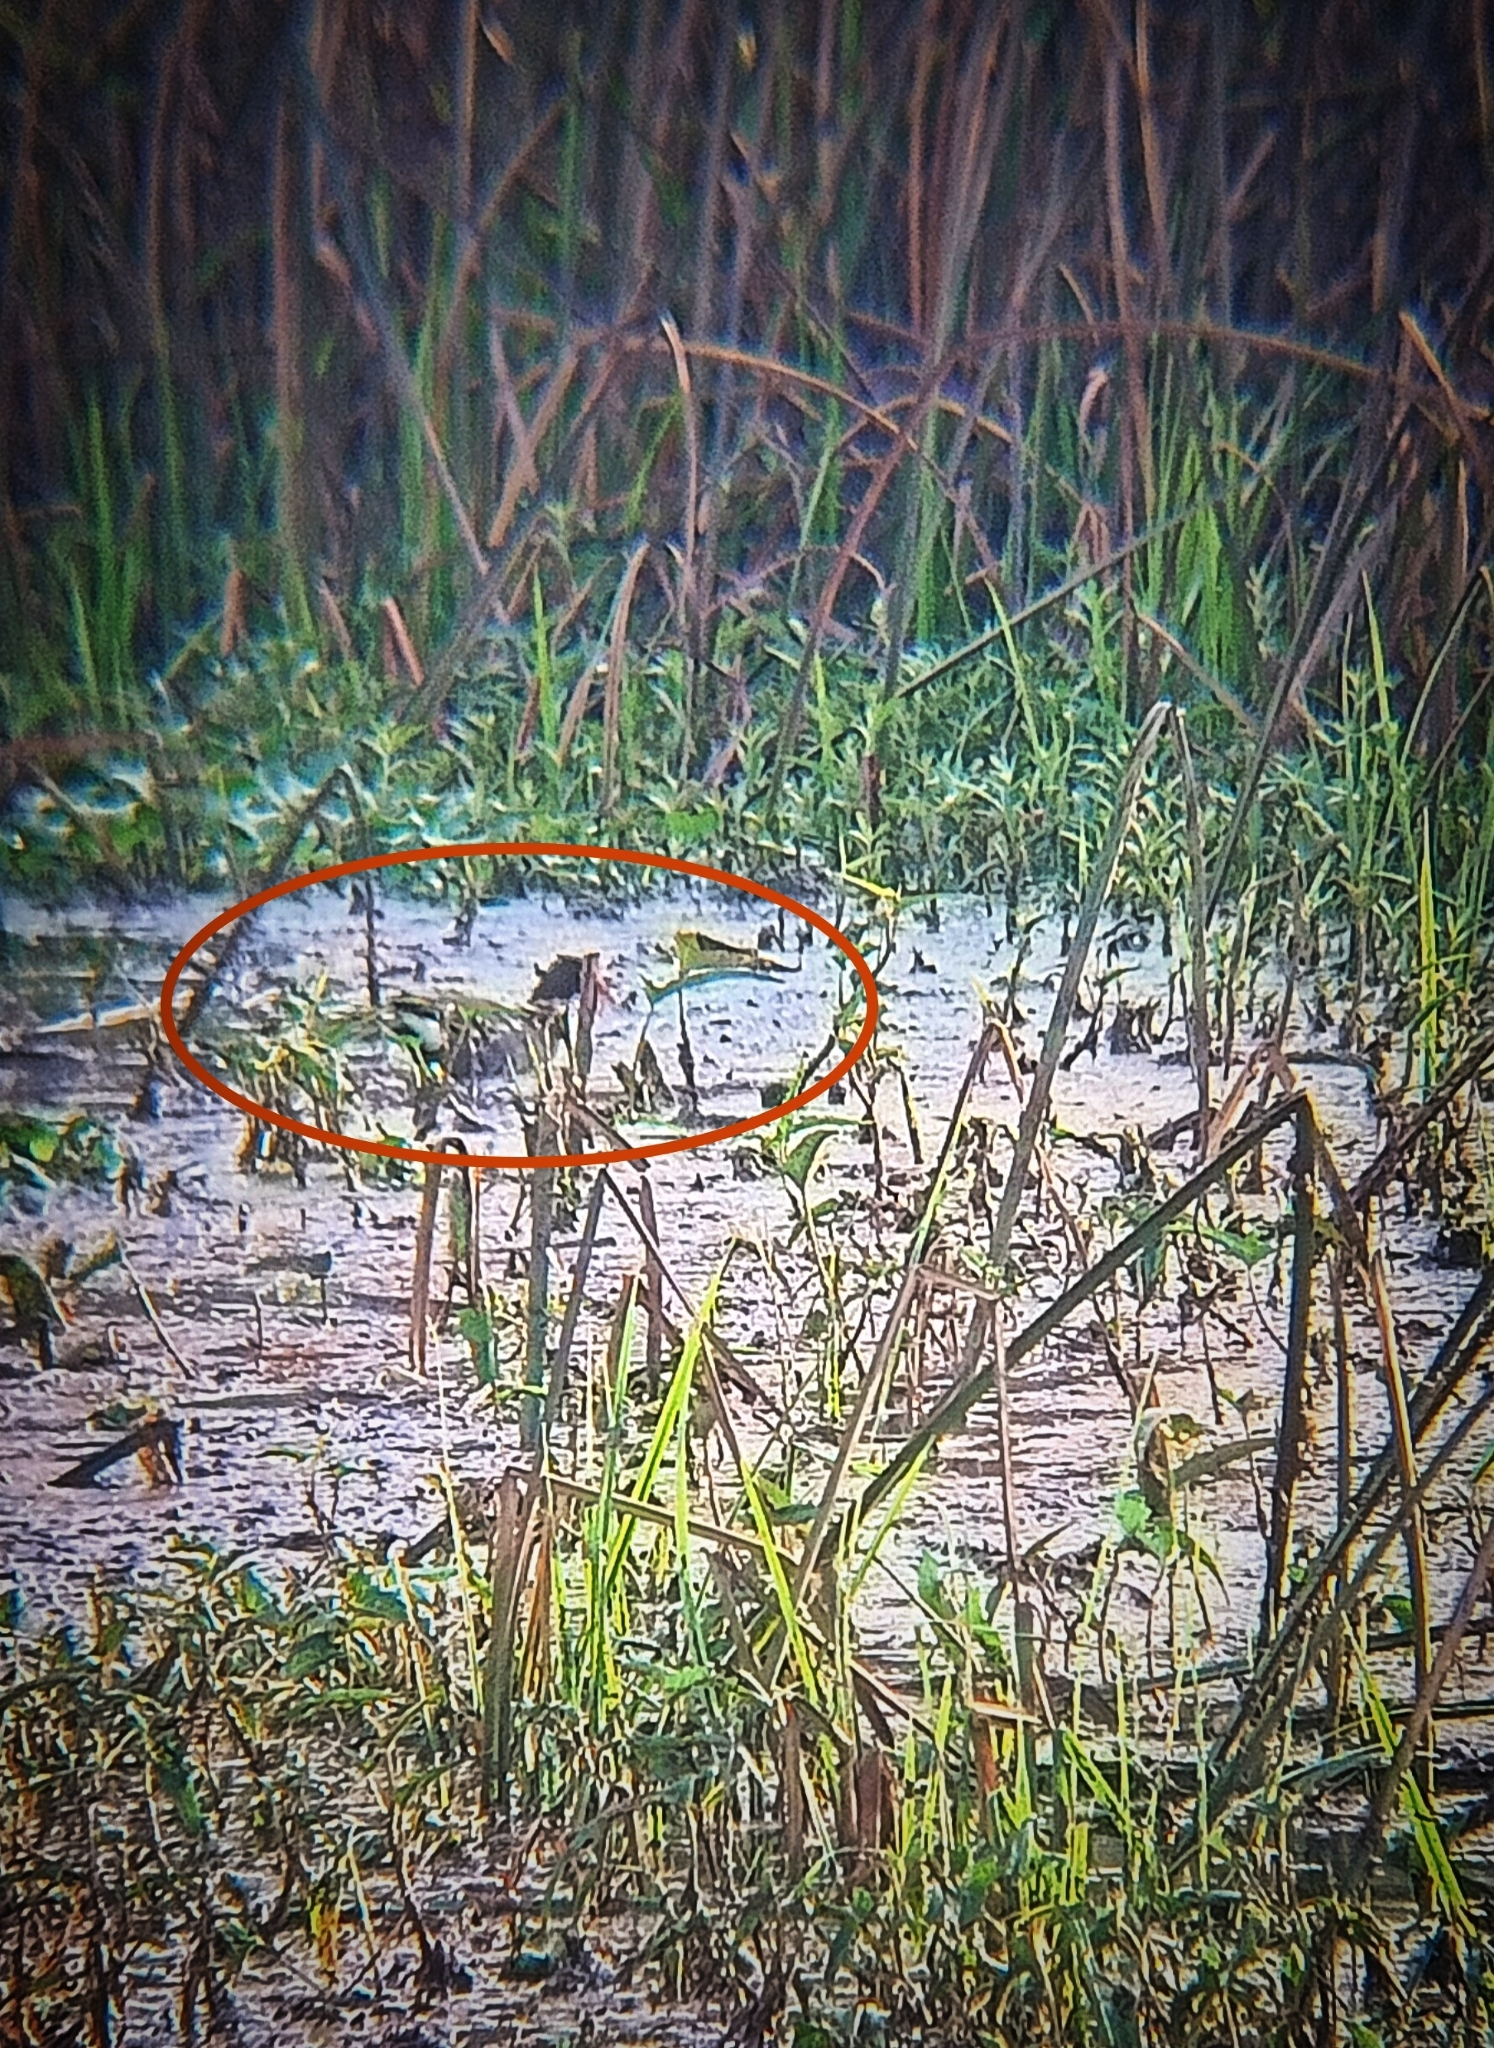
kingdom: Animalia
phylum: Chordata
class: Aves
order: Gruiformes
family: Rallidae
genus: Gallinula
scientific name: Gallinula chloropus
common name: Common moorhen
